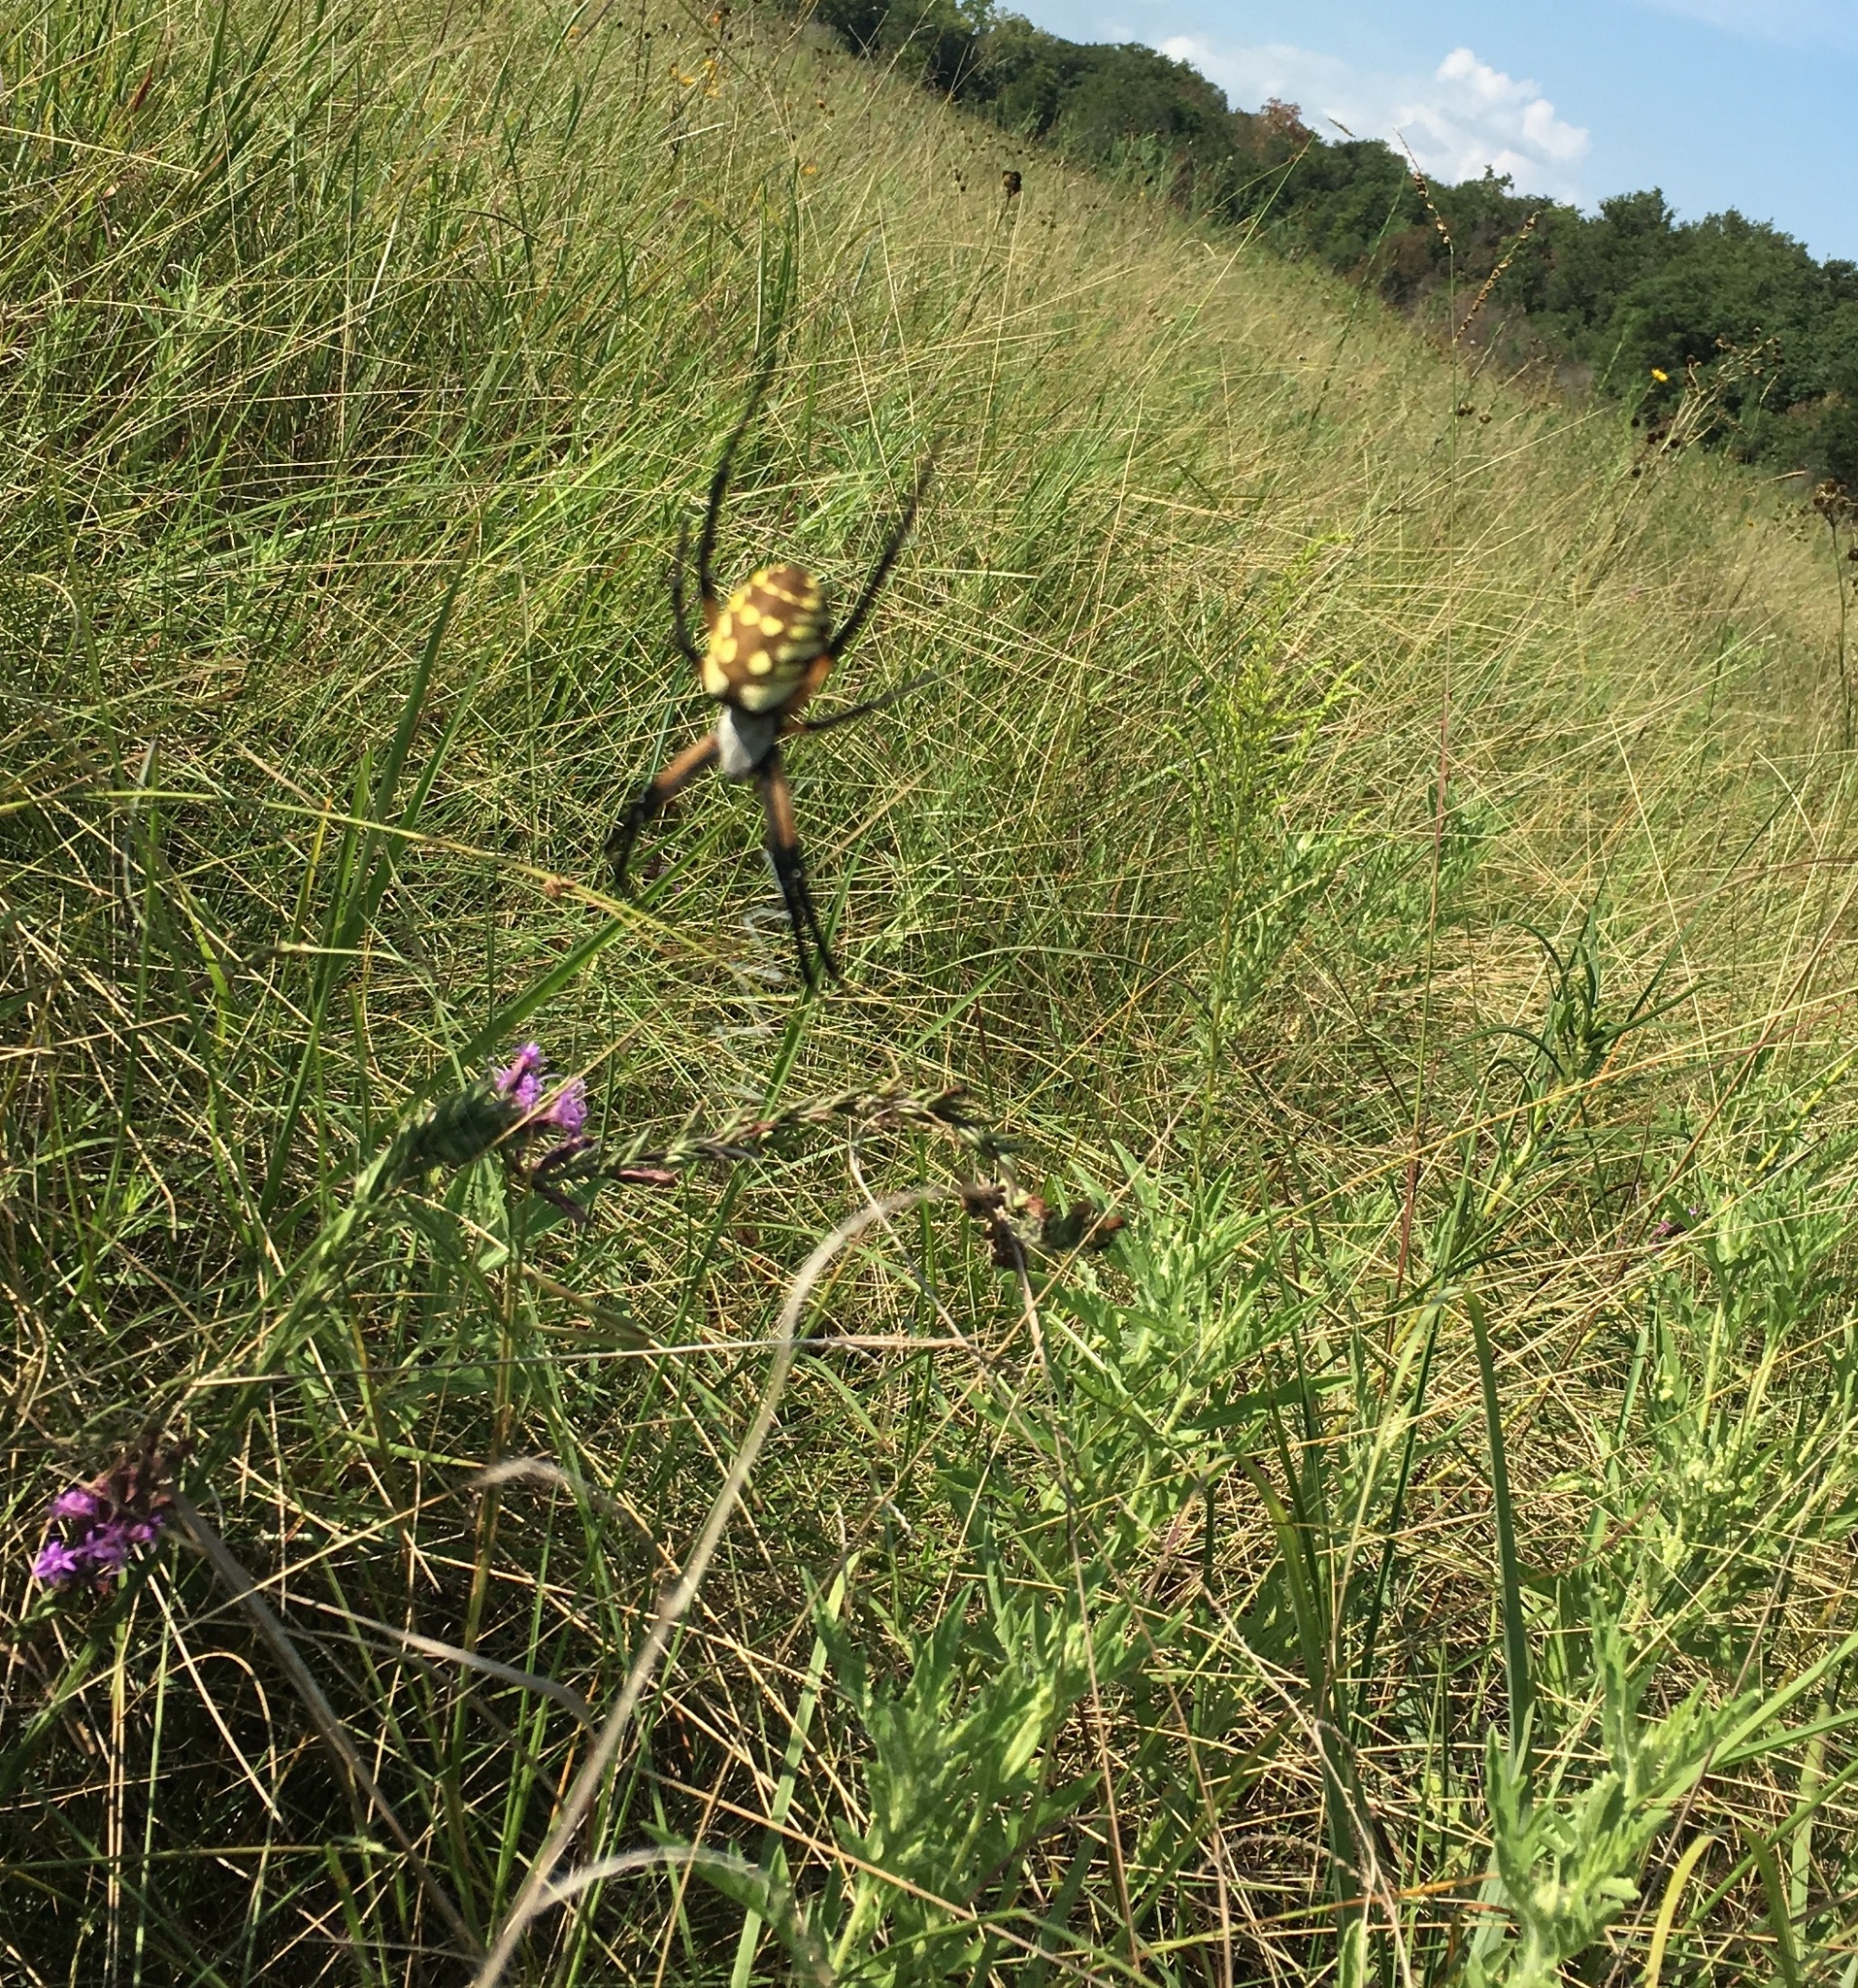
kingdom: Animalia
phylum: Arthropoda
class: Arachnida
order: Araneae
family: Araneidae
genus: Argiope
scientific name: Argiope aurantia
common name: Orb weavers
